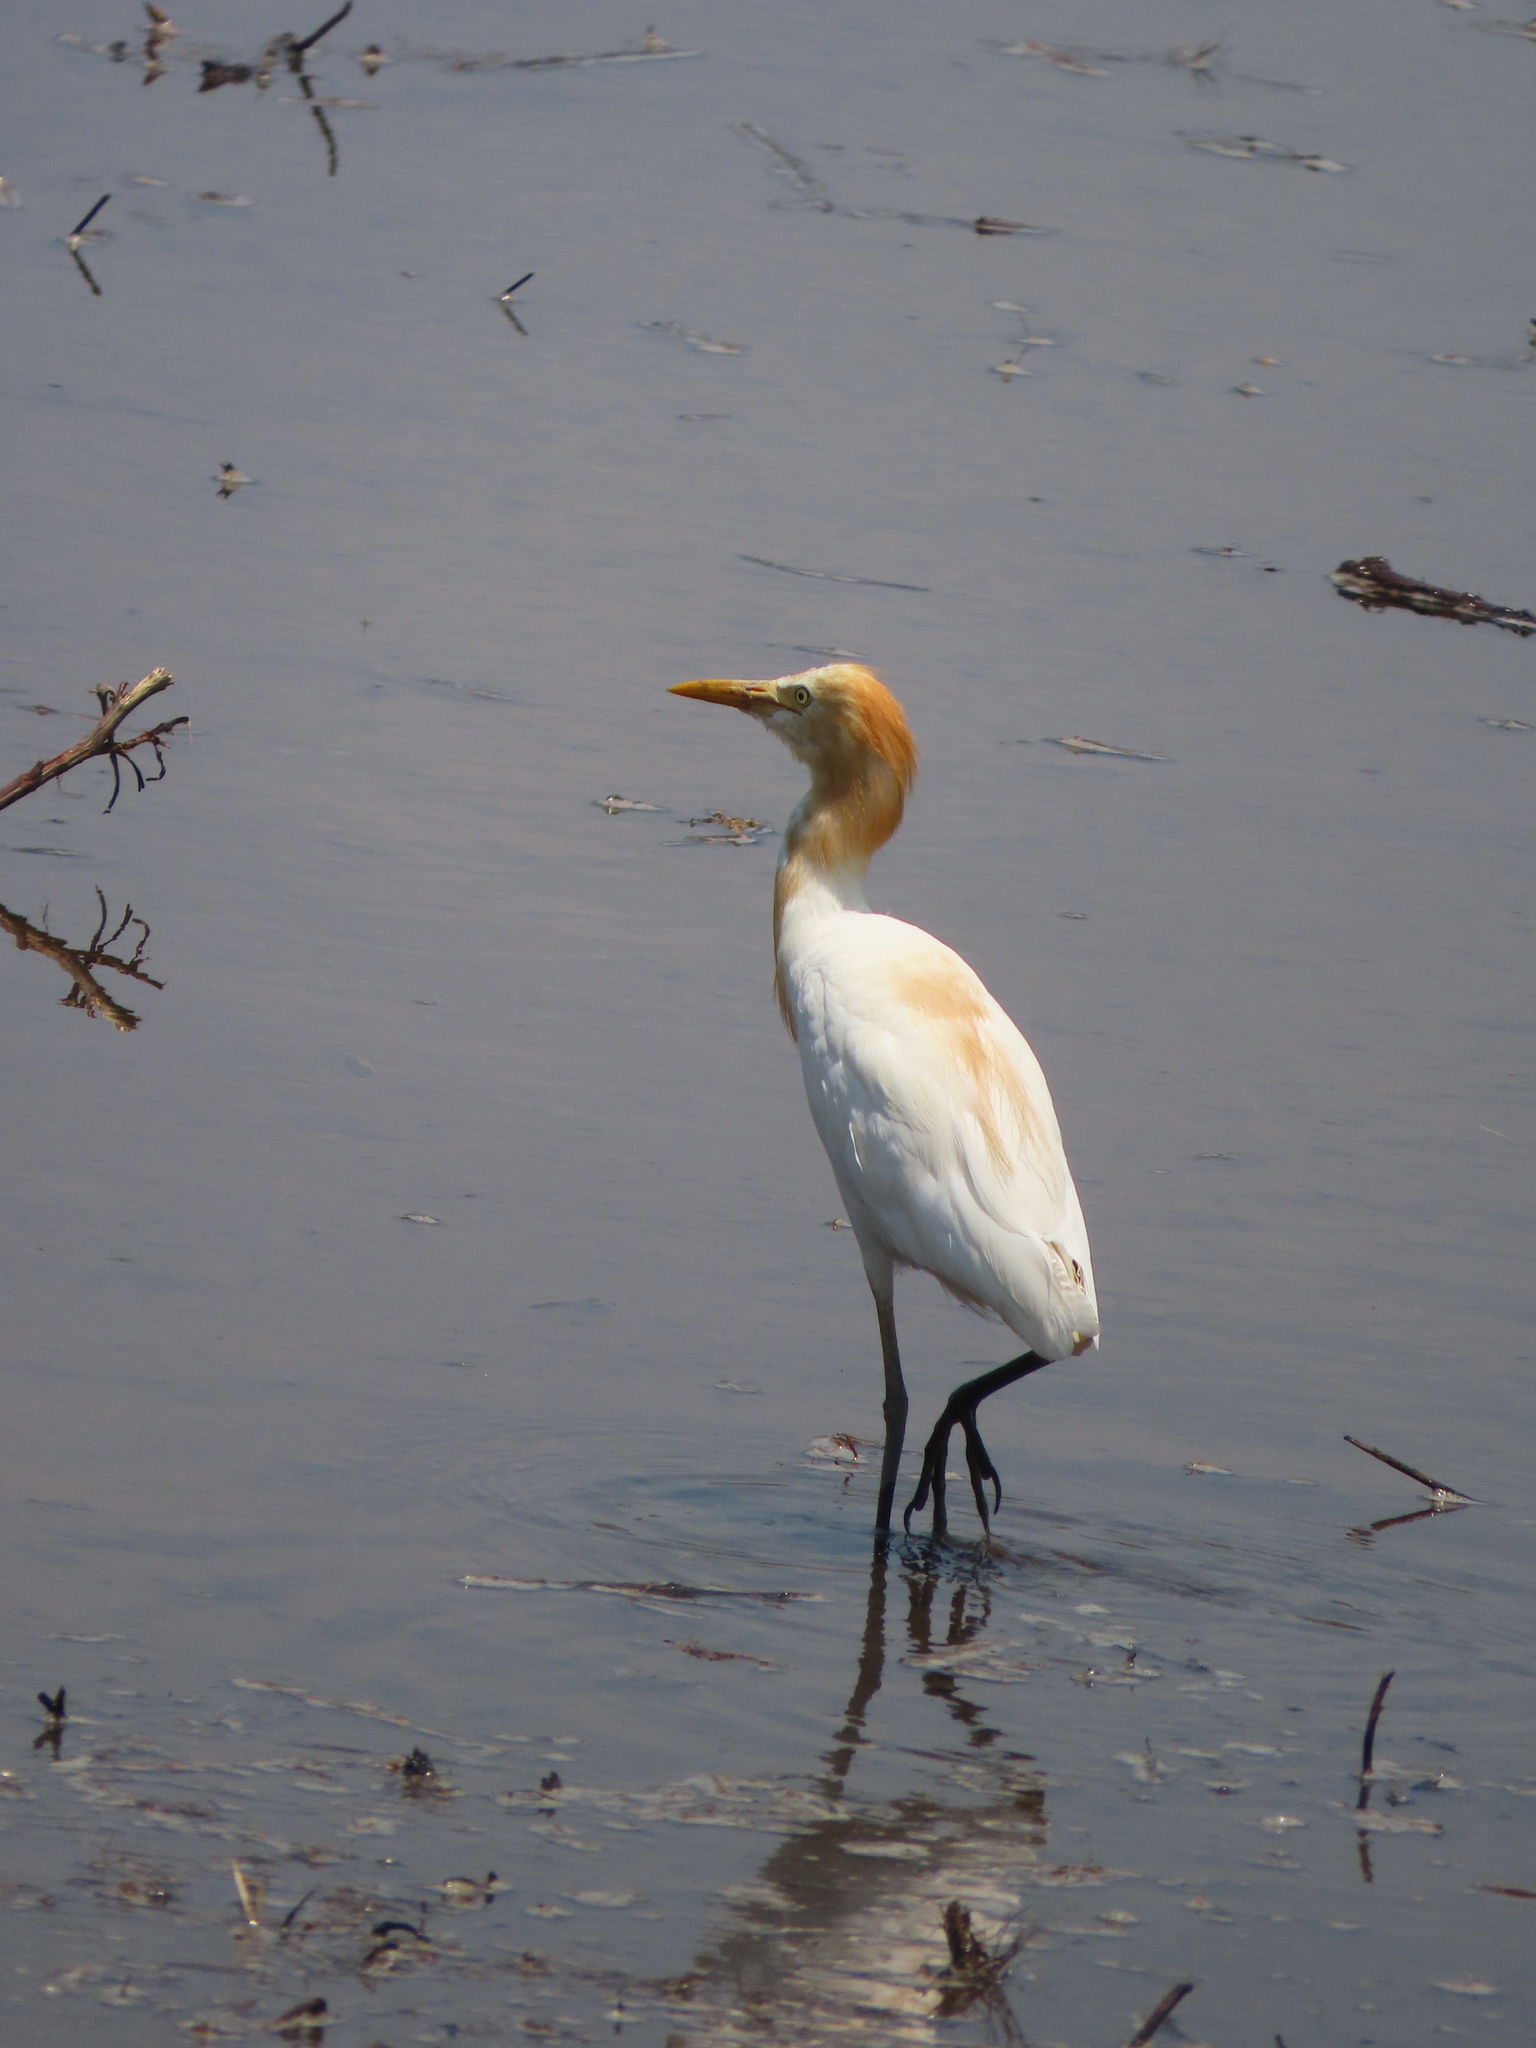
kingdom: Animalia
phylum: Chordata
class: Aves
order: Pelecaniformes
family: Ardeidae
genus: Bubulcus
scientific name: Bubulcus coromandus
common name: Eastern cattle egret
